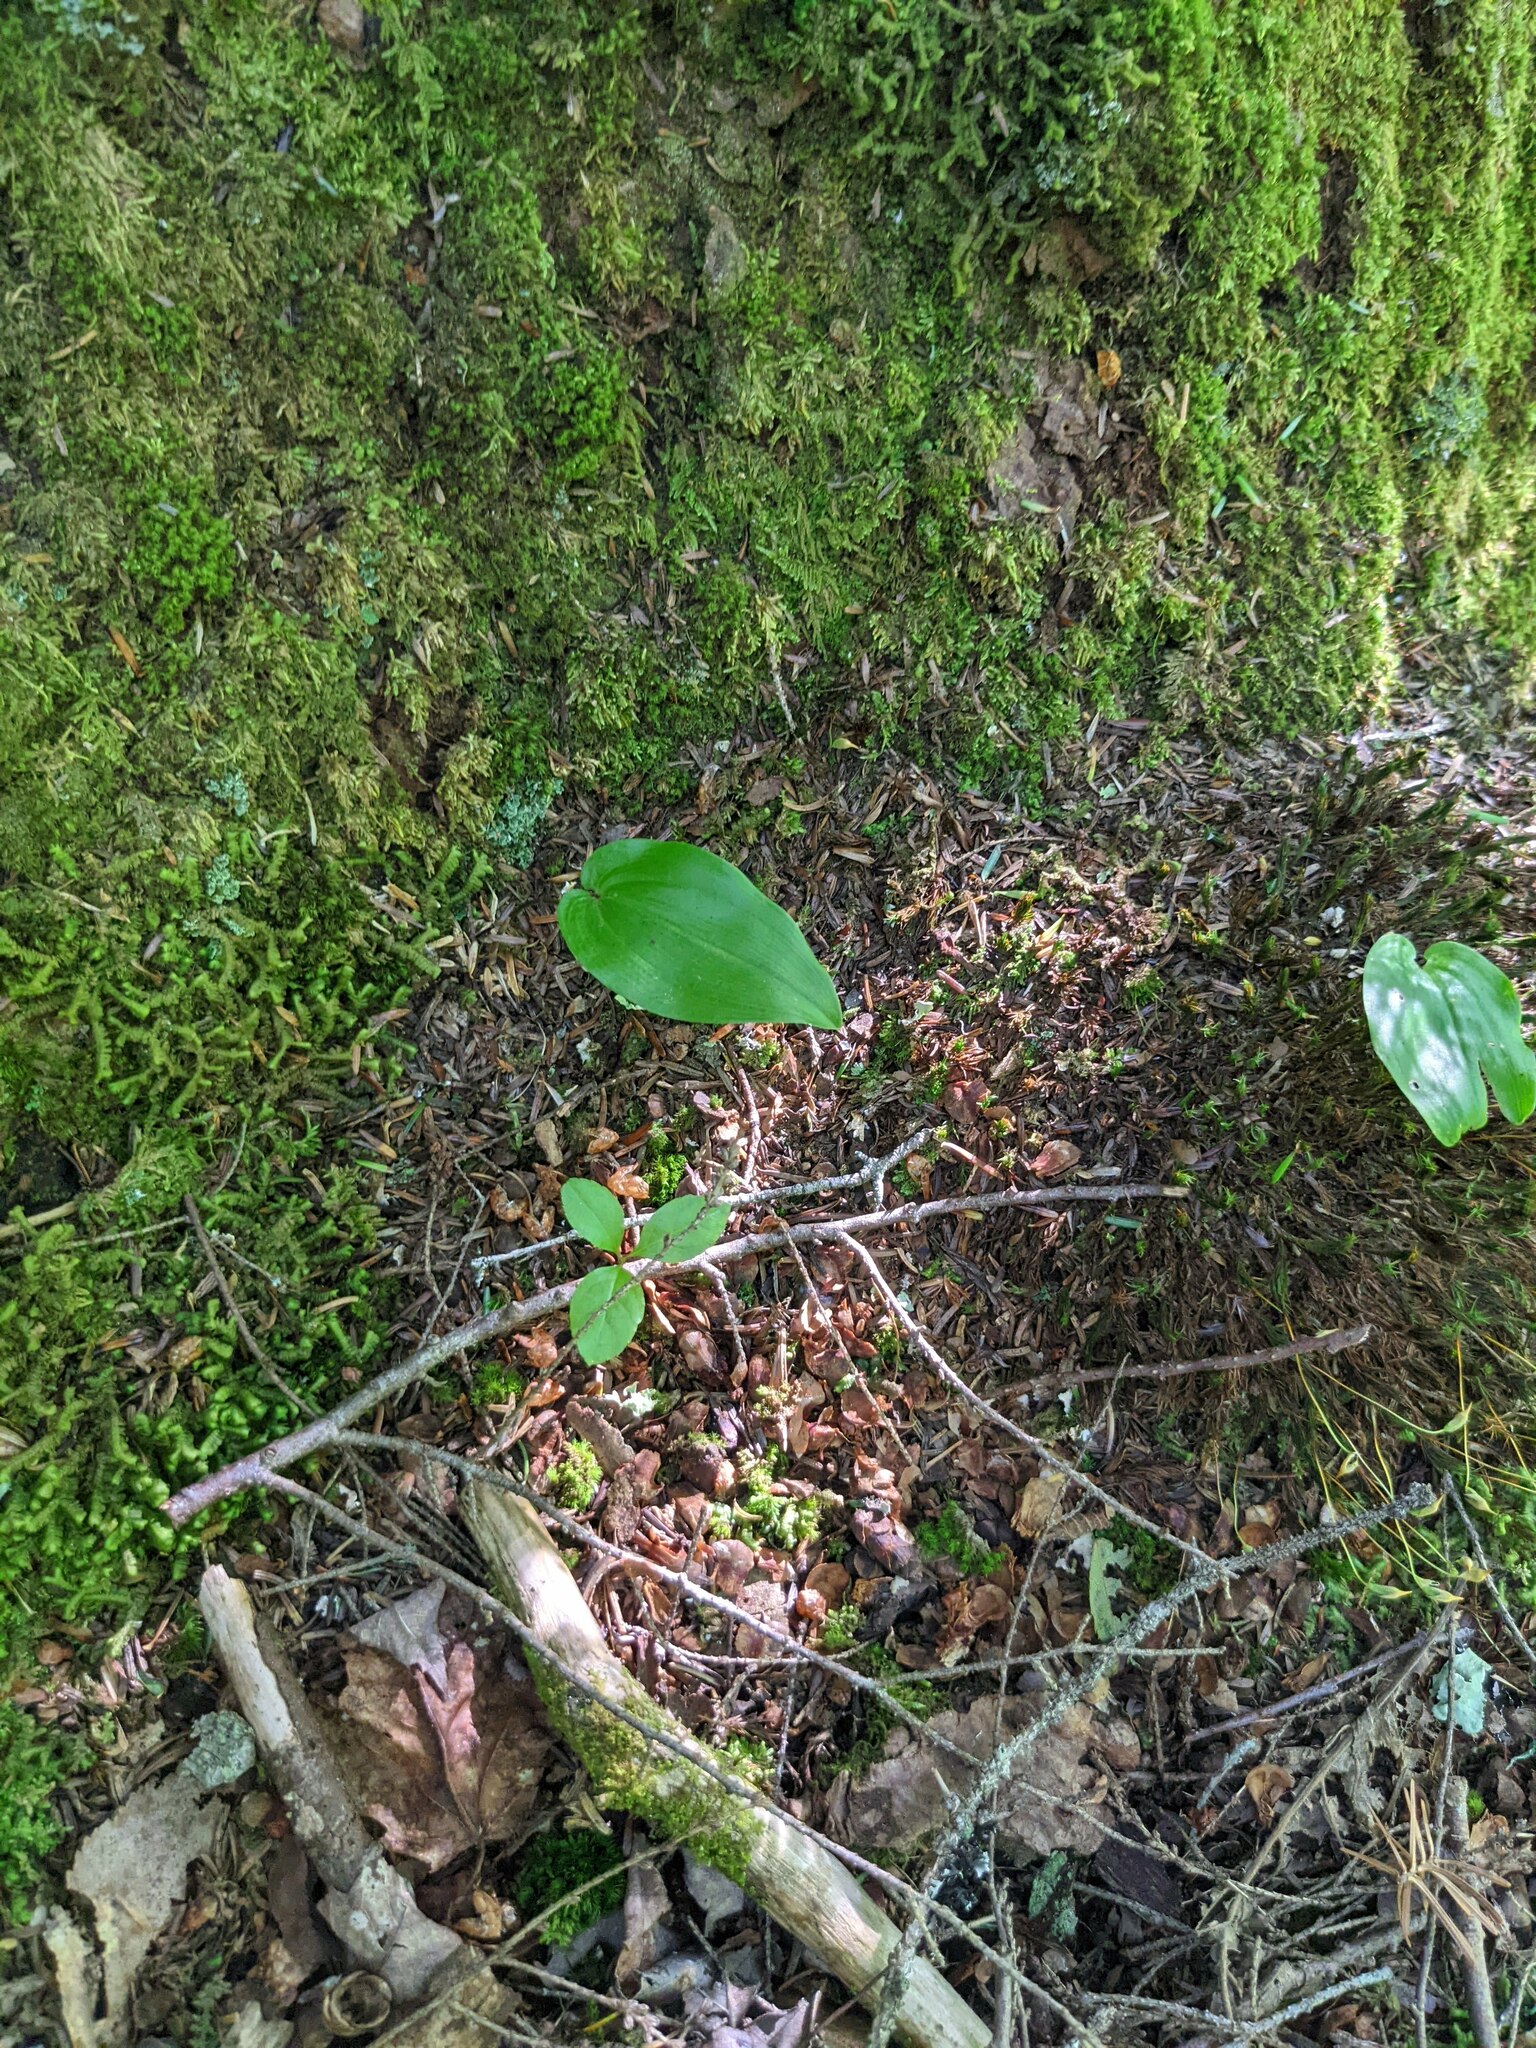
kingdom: Plantae
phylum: Tracheophyta
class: Liliopsida
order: Asparagales
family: Asparagaceae
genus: Maianthemum
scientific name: Maianthemum canadense
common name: False lily-of-the-valley
